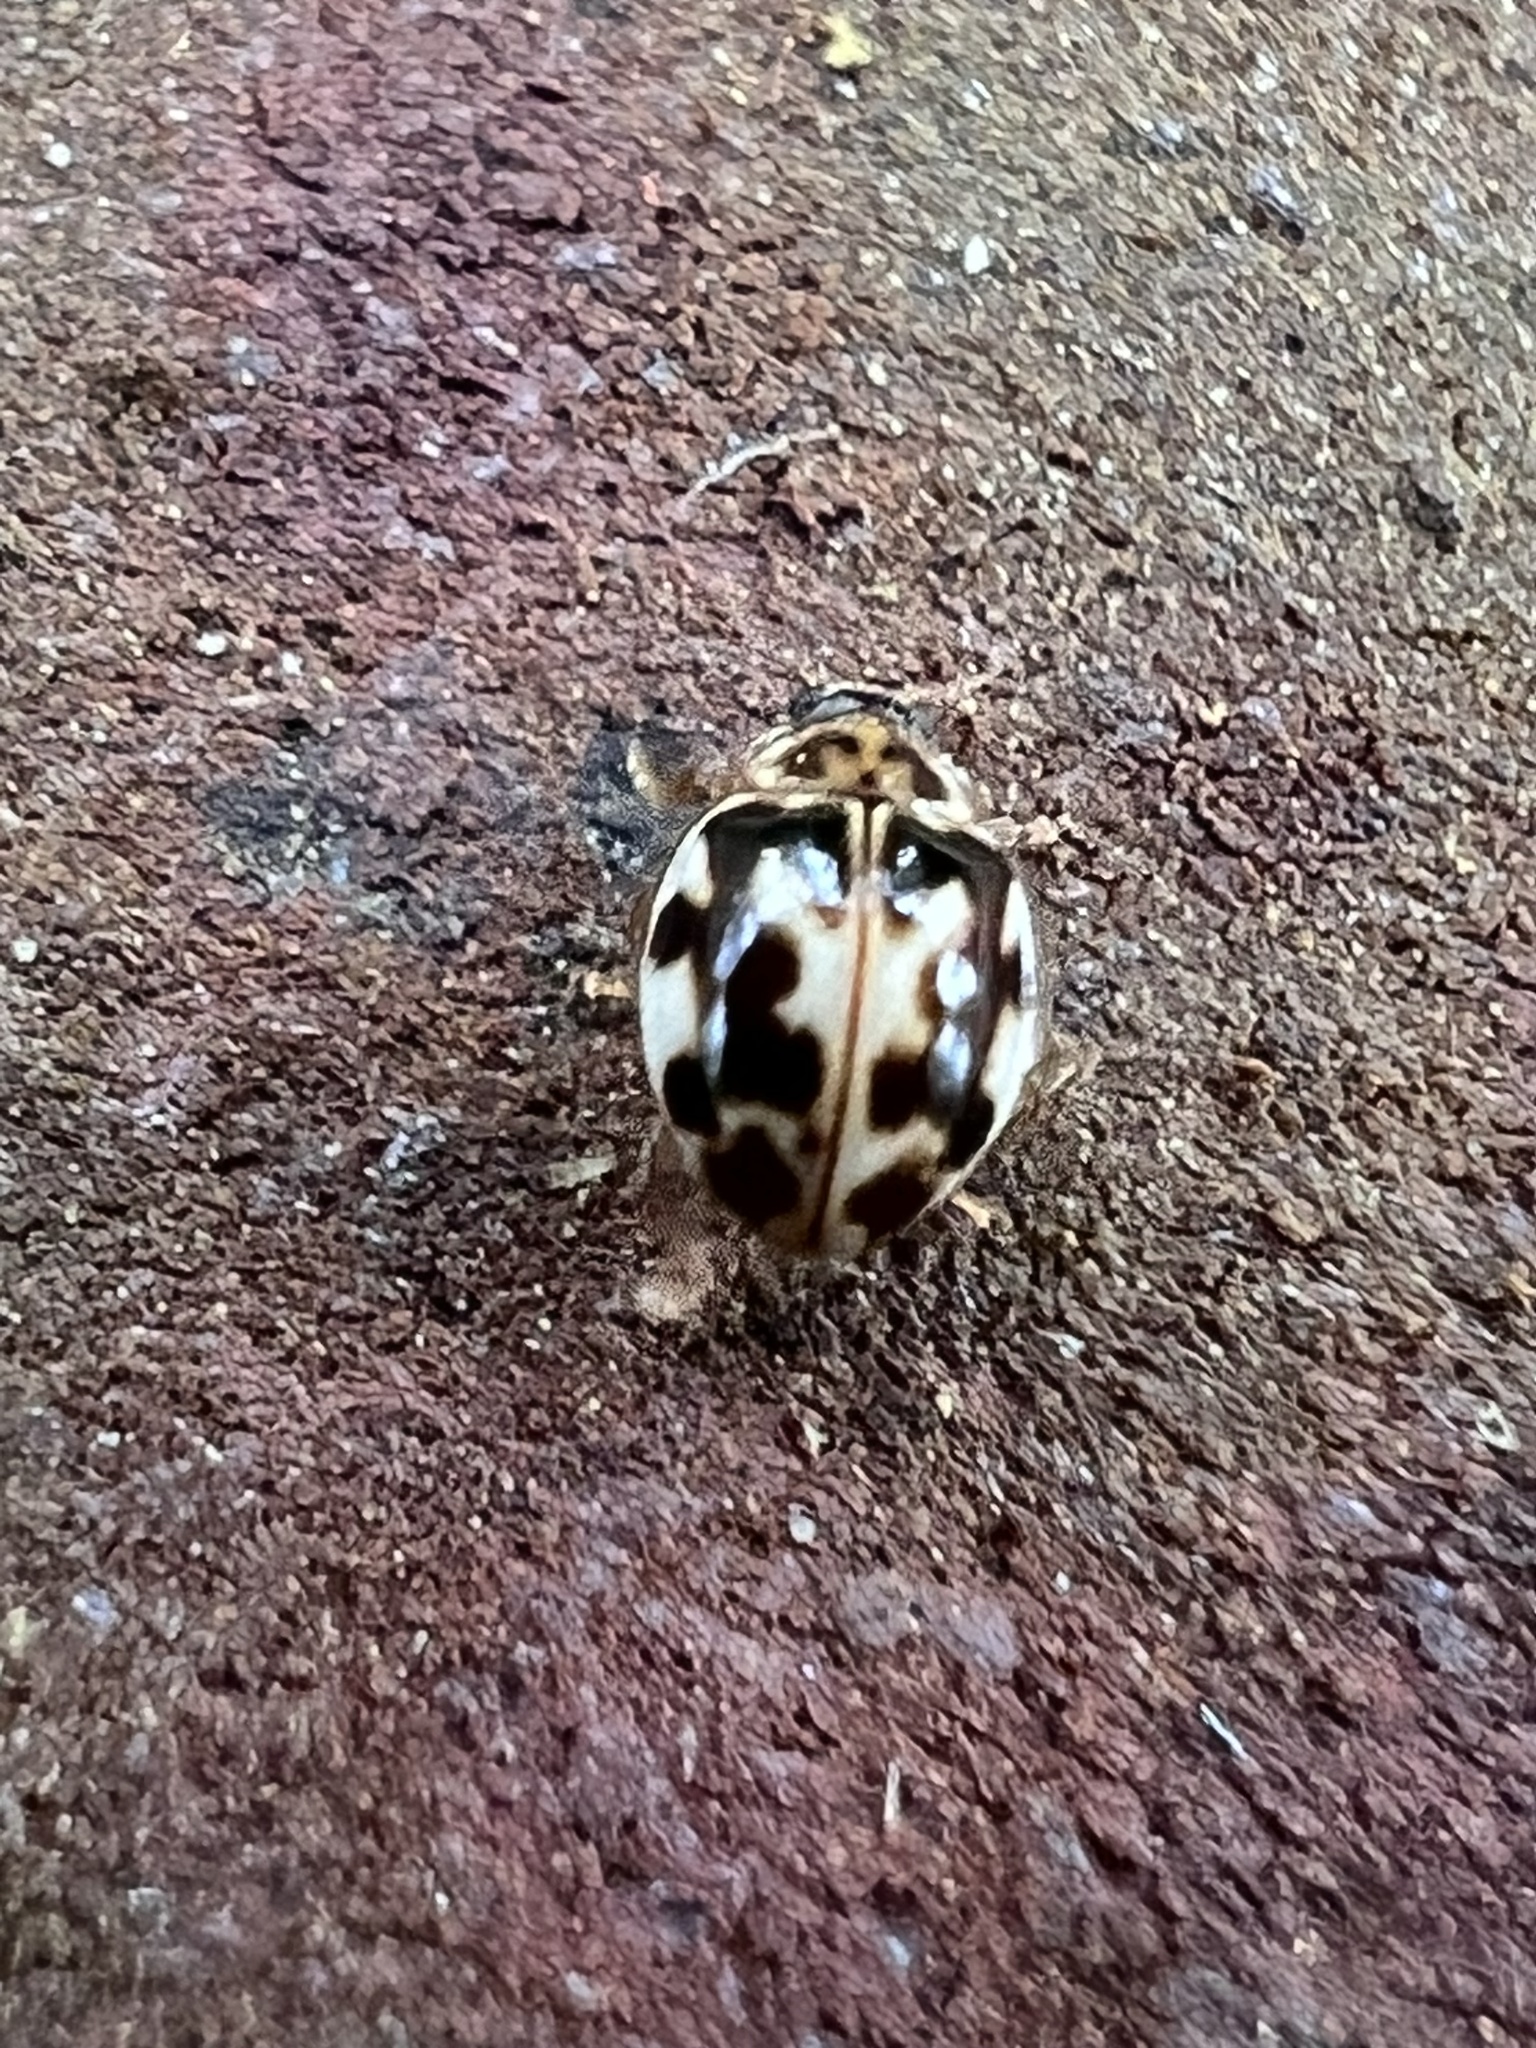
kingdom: Animalia
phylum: Arthropoda
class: Insecta
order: Coleoptera
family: Coccinellidae
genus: Psyllobora
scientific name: Psyllobora vigintimaculata
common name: Ladybird beetle
